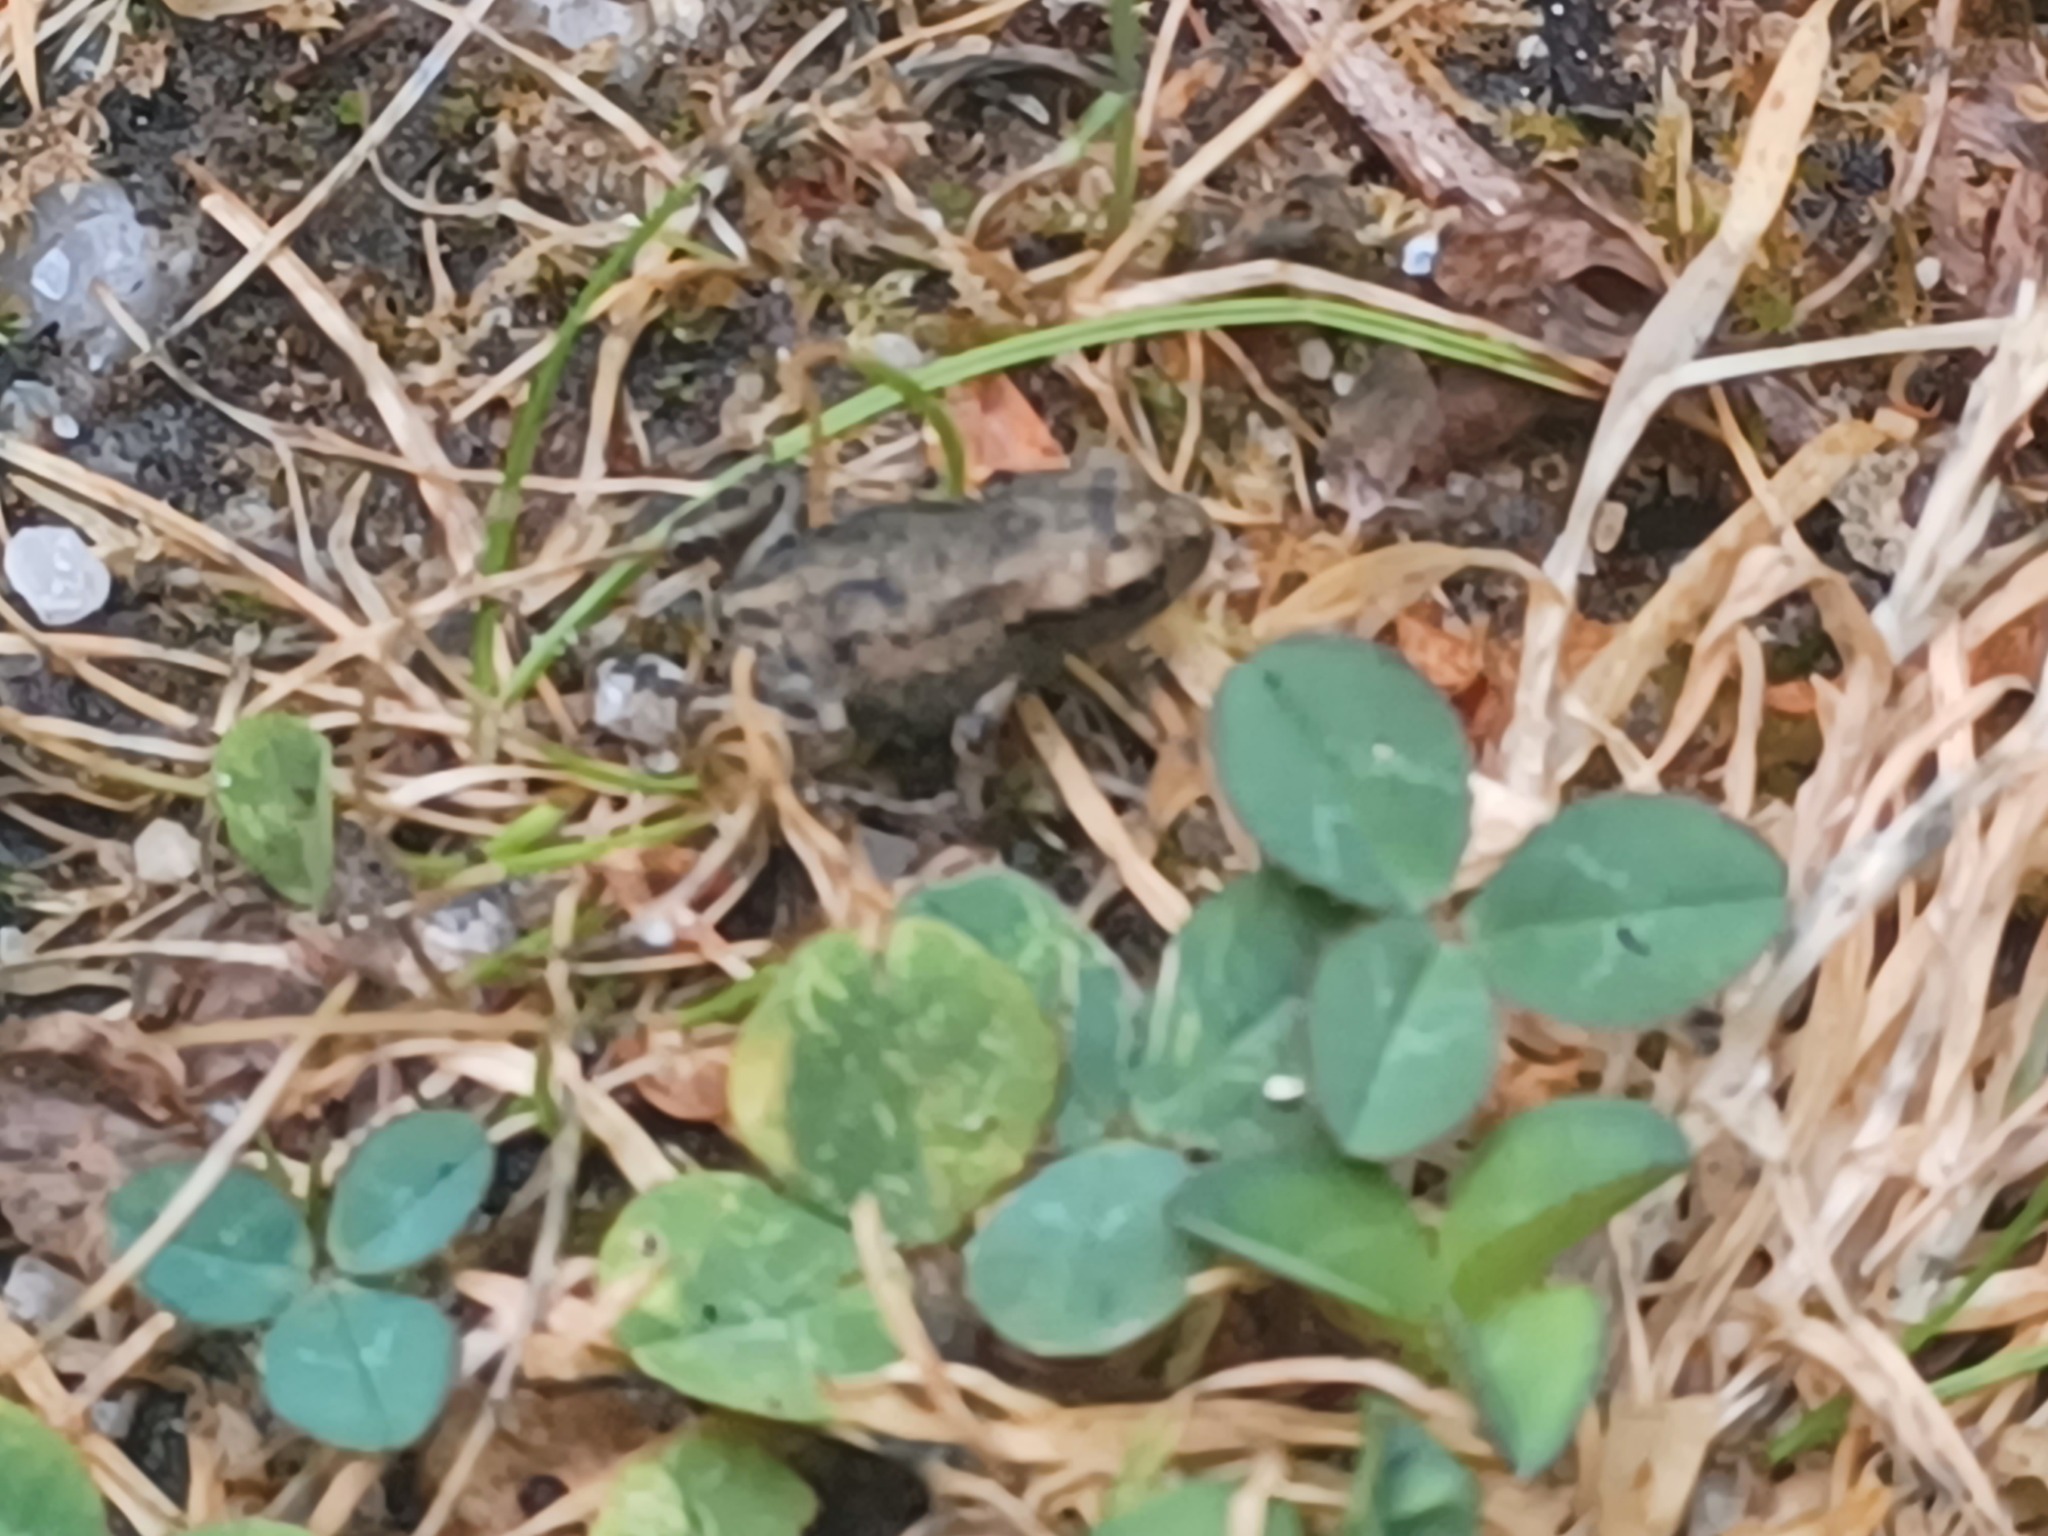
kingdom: Animalia
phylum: Chordata
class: Amphibia
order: Anura
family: Bufonidae
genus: Bufo
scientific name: Bufo bufo
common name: Common toad
